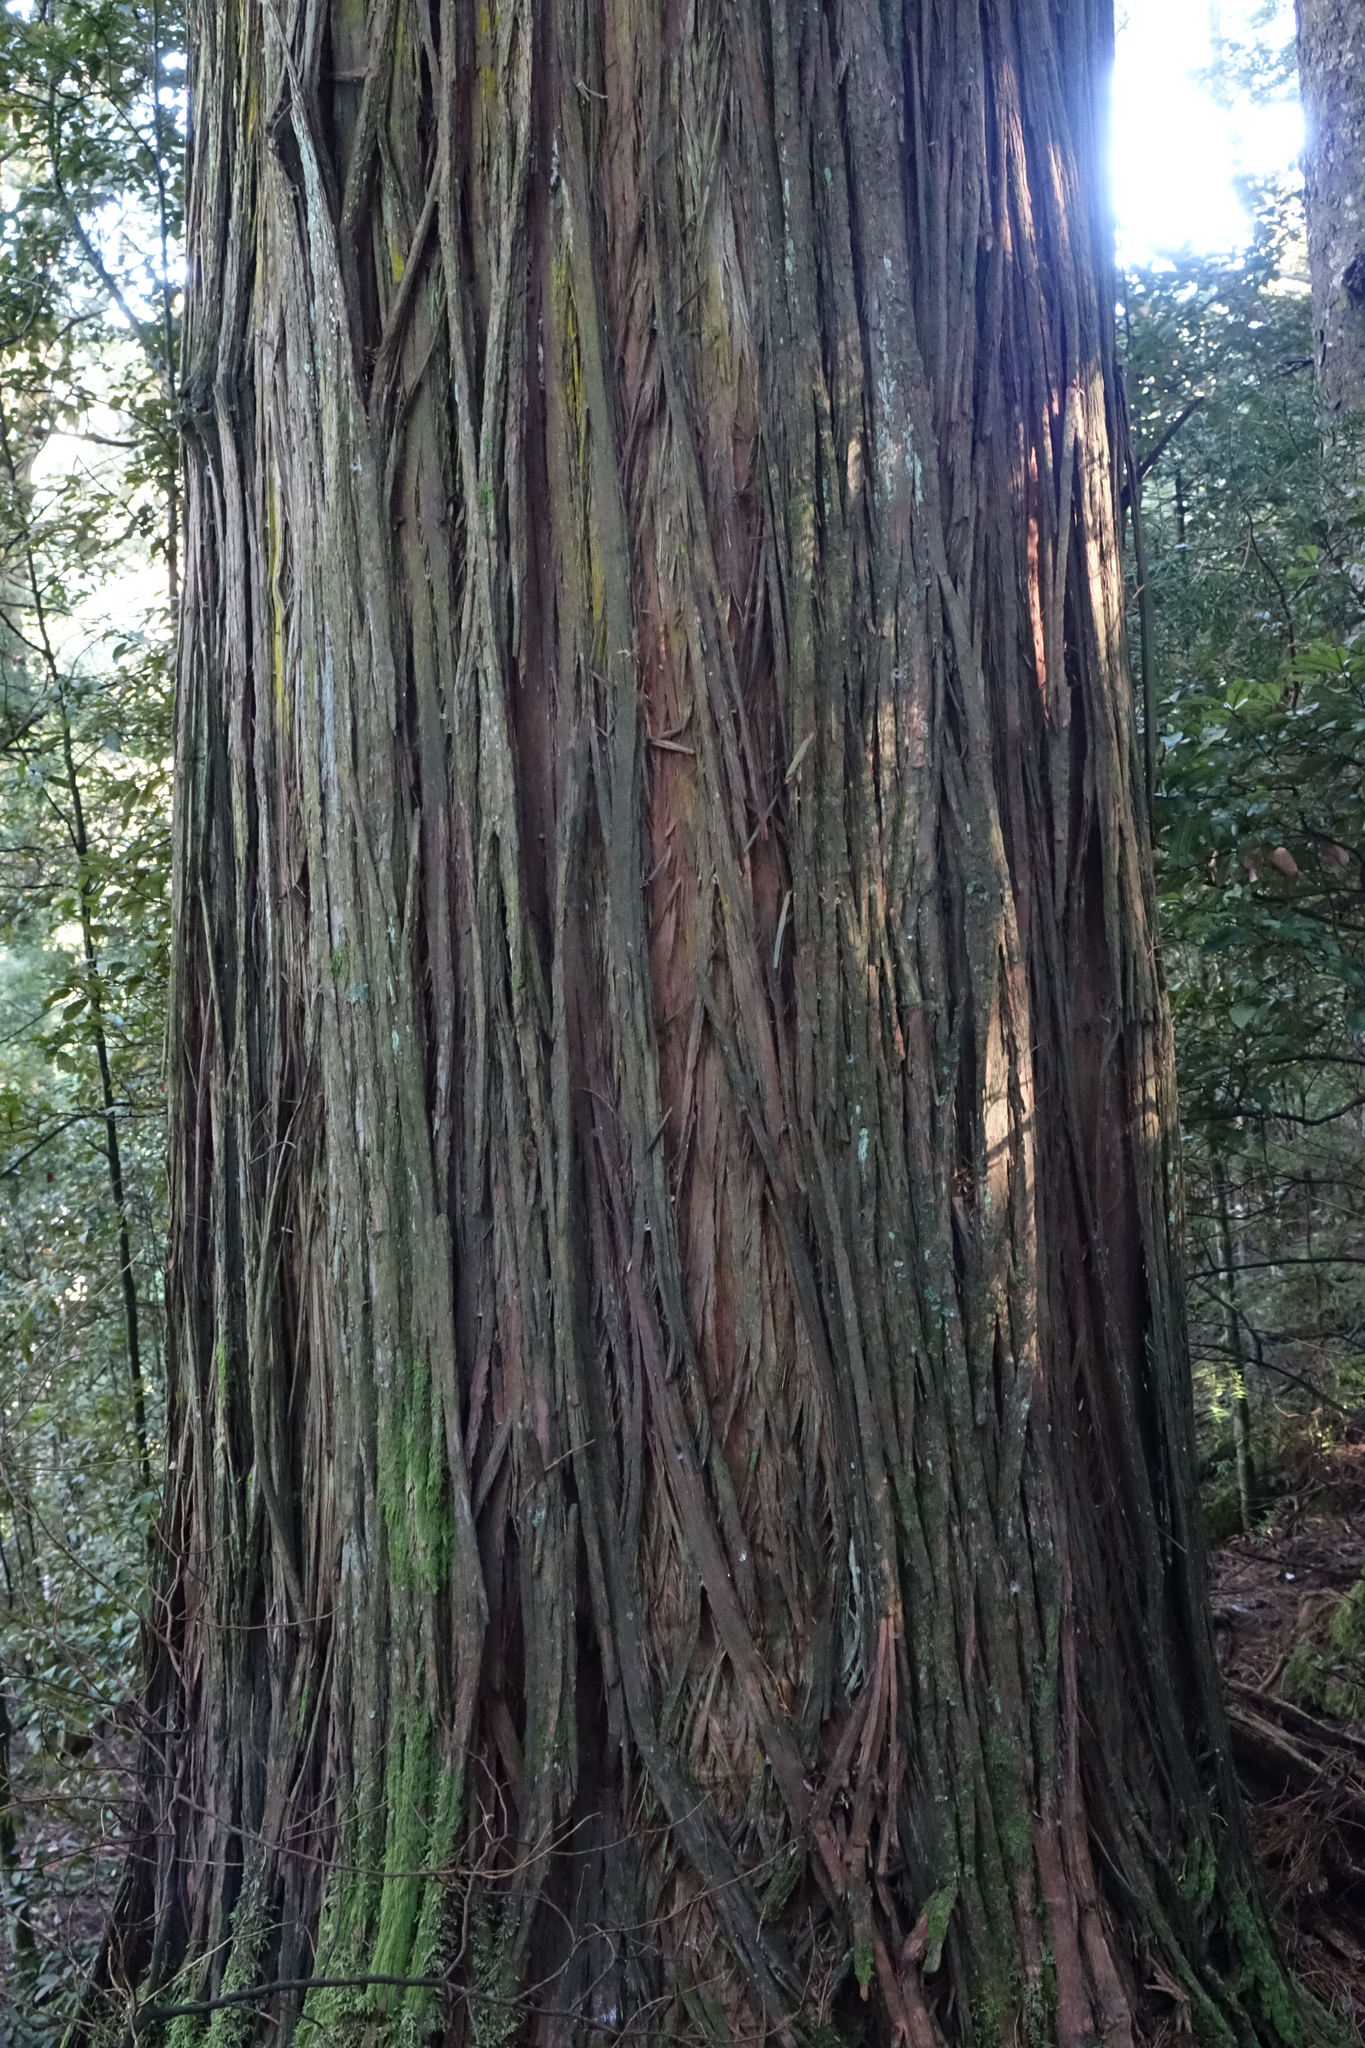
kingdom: Plantae
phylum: Tracheophyta
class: Pinopsida
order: Pinales
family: Podocarpaceae
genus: Podocarpus
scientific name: Podocarpus totara
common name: Totara
